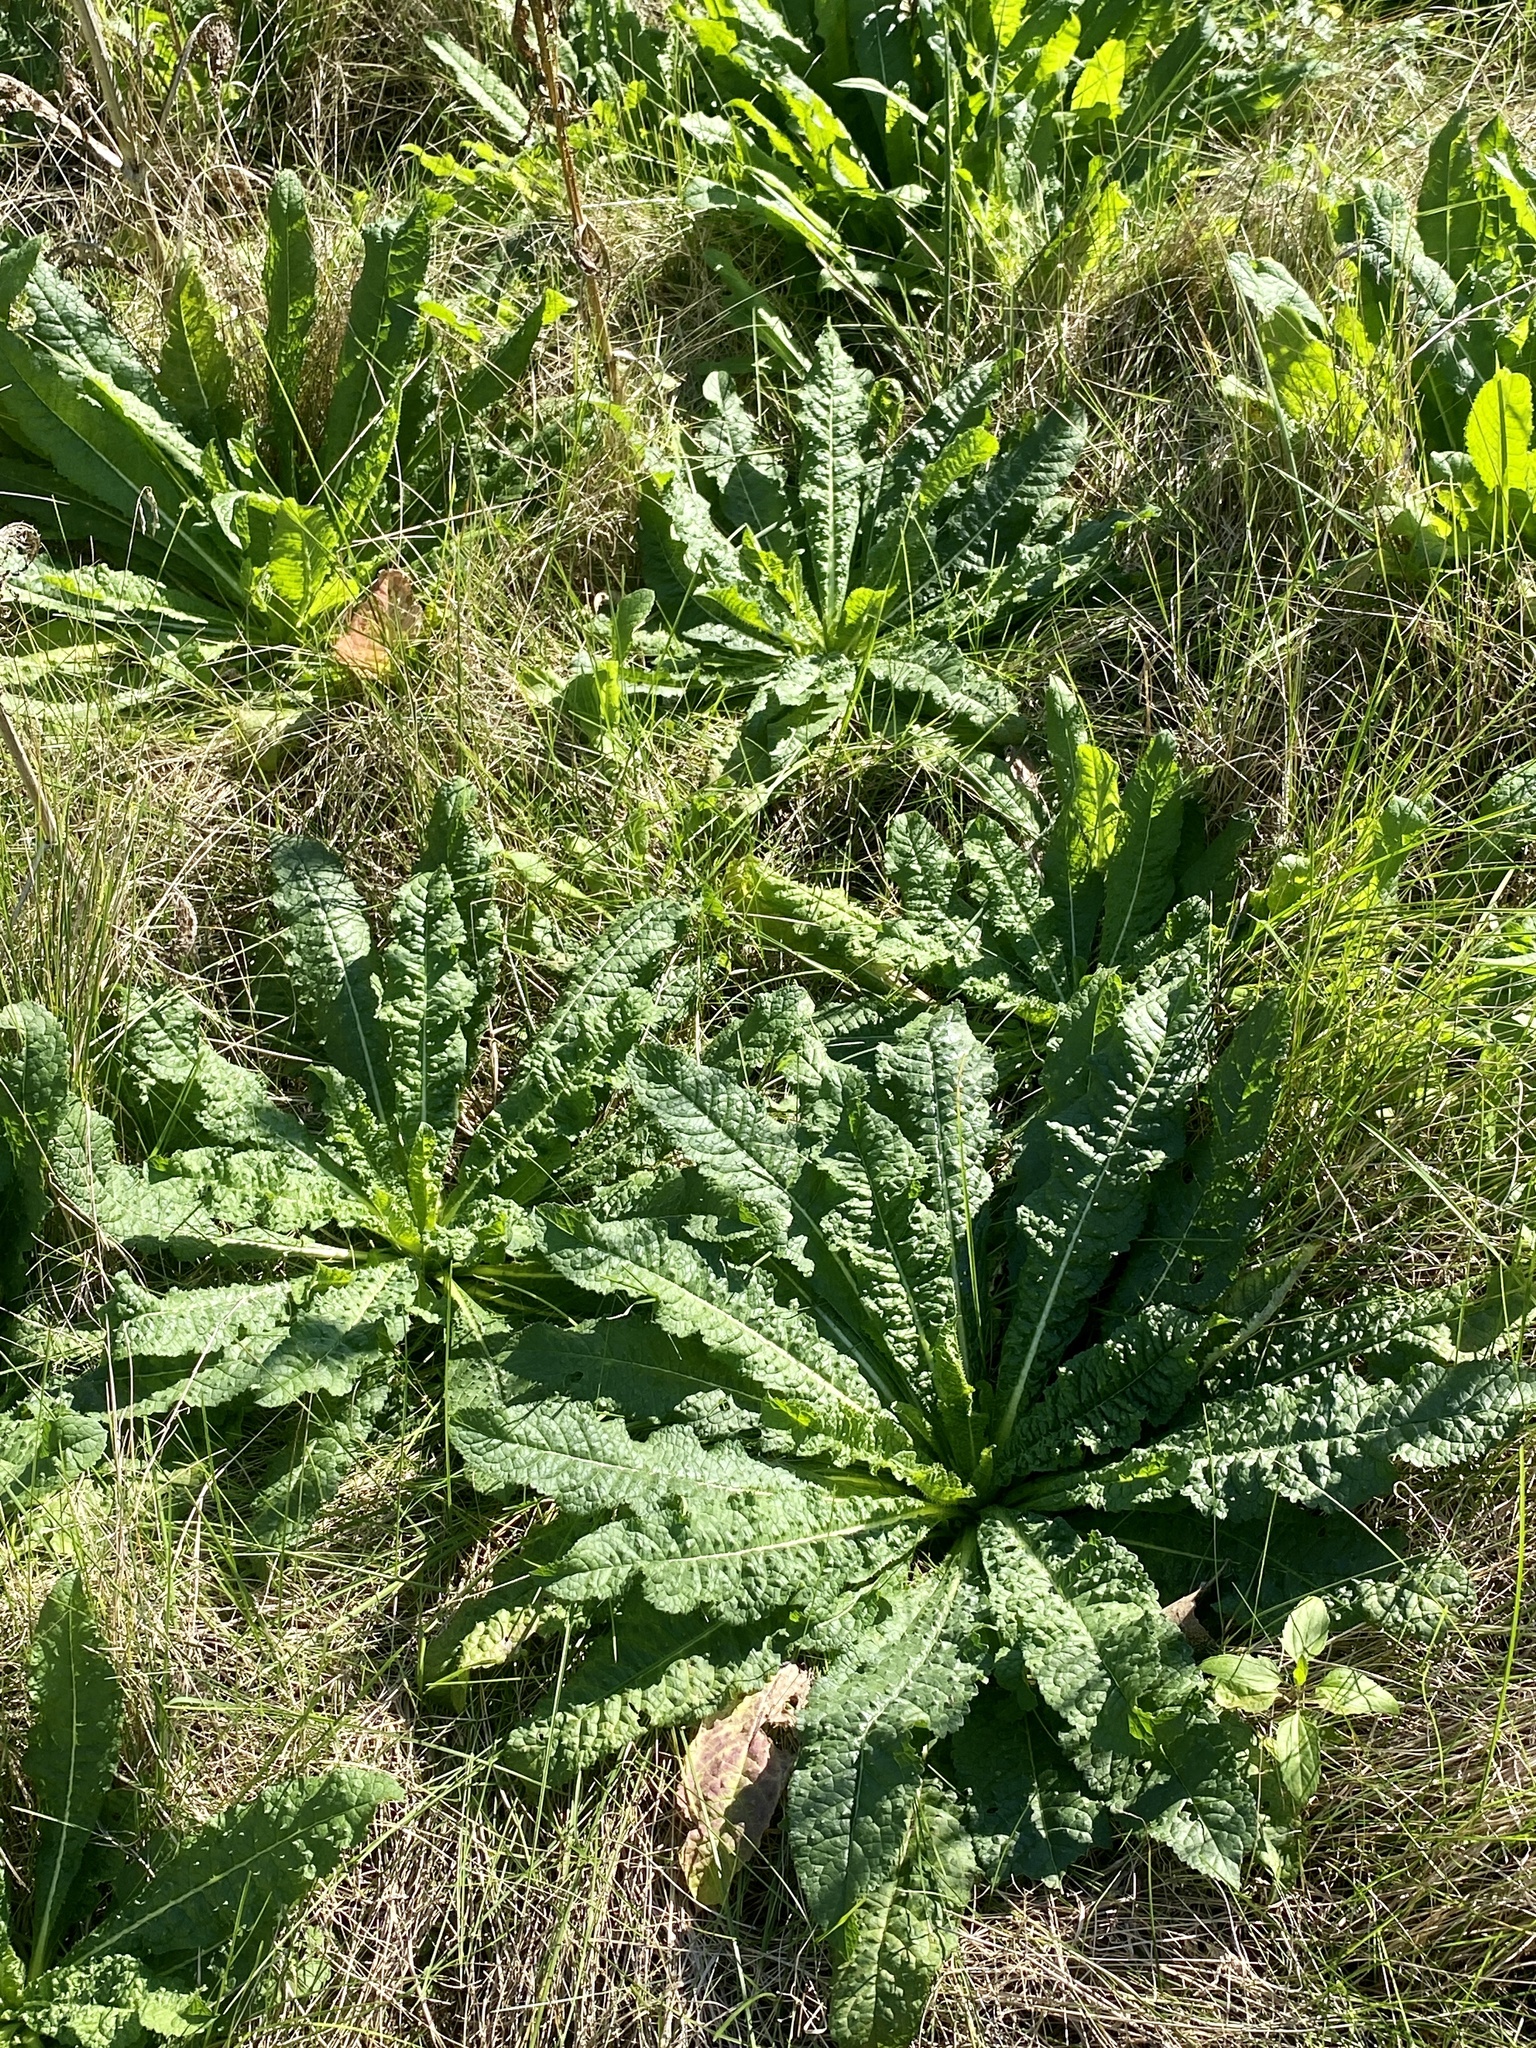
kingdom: Plantae
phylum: Tracheophyta
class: Magnoliopsida
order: Dipsacales
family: Caprifoliaceae
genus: Dipsacus
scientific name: Dipsacus fullonum
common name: Teasel
